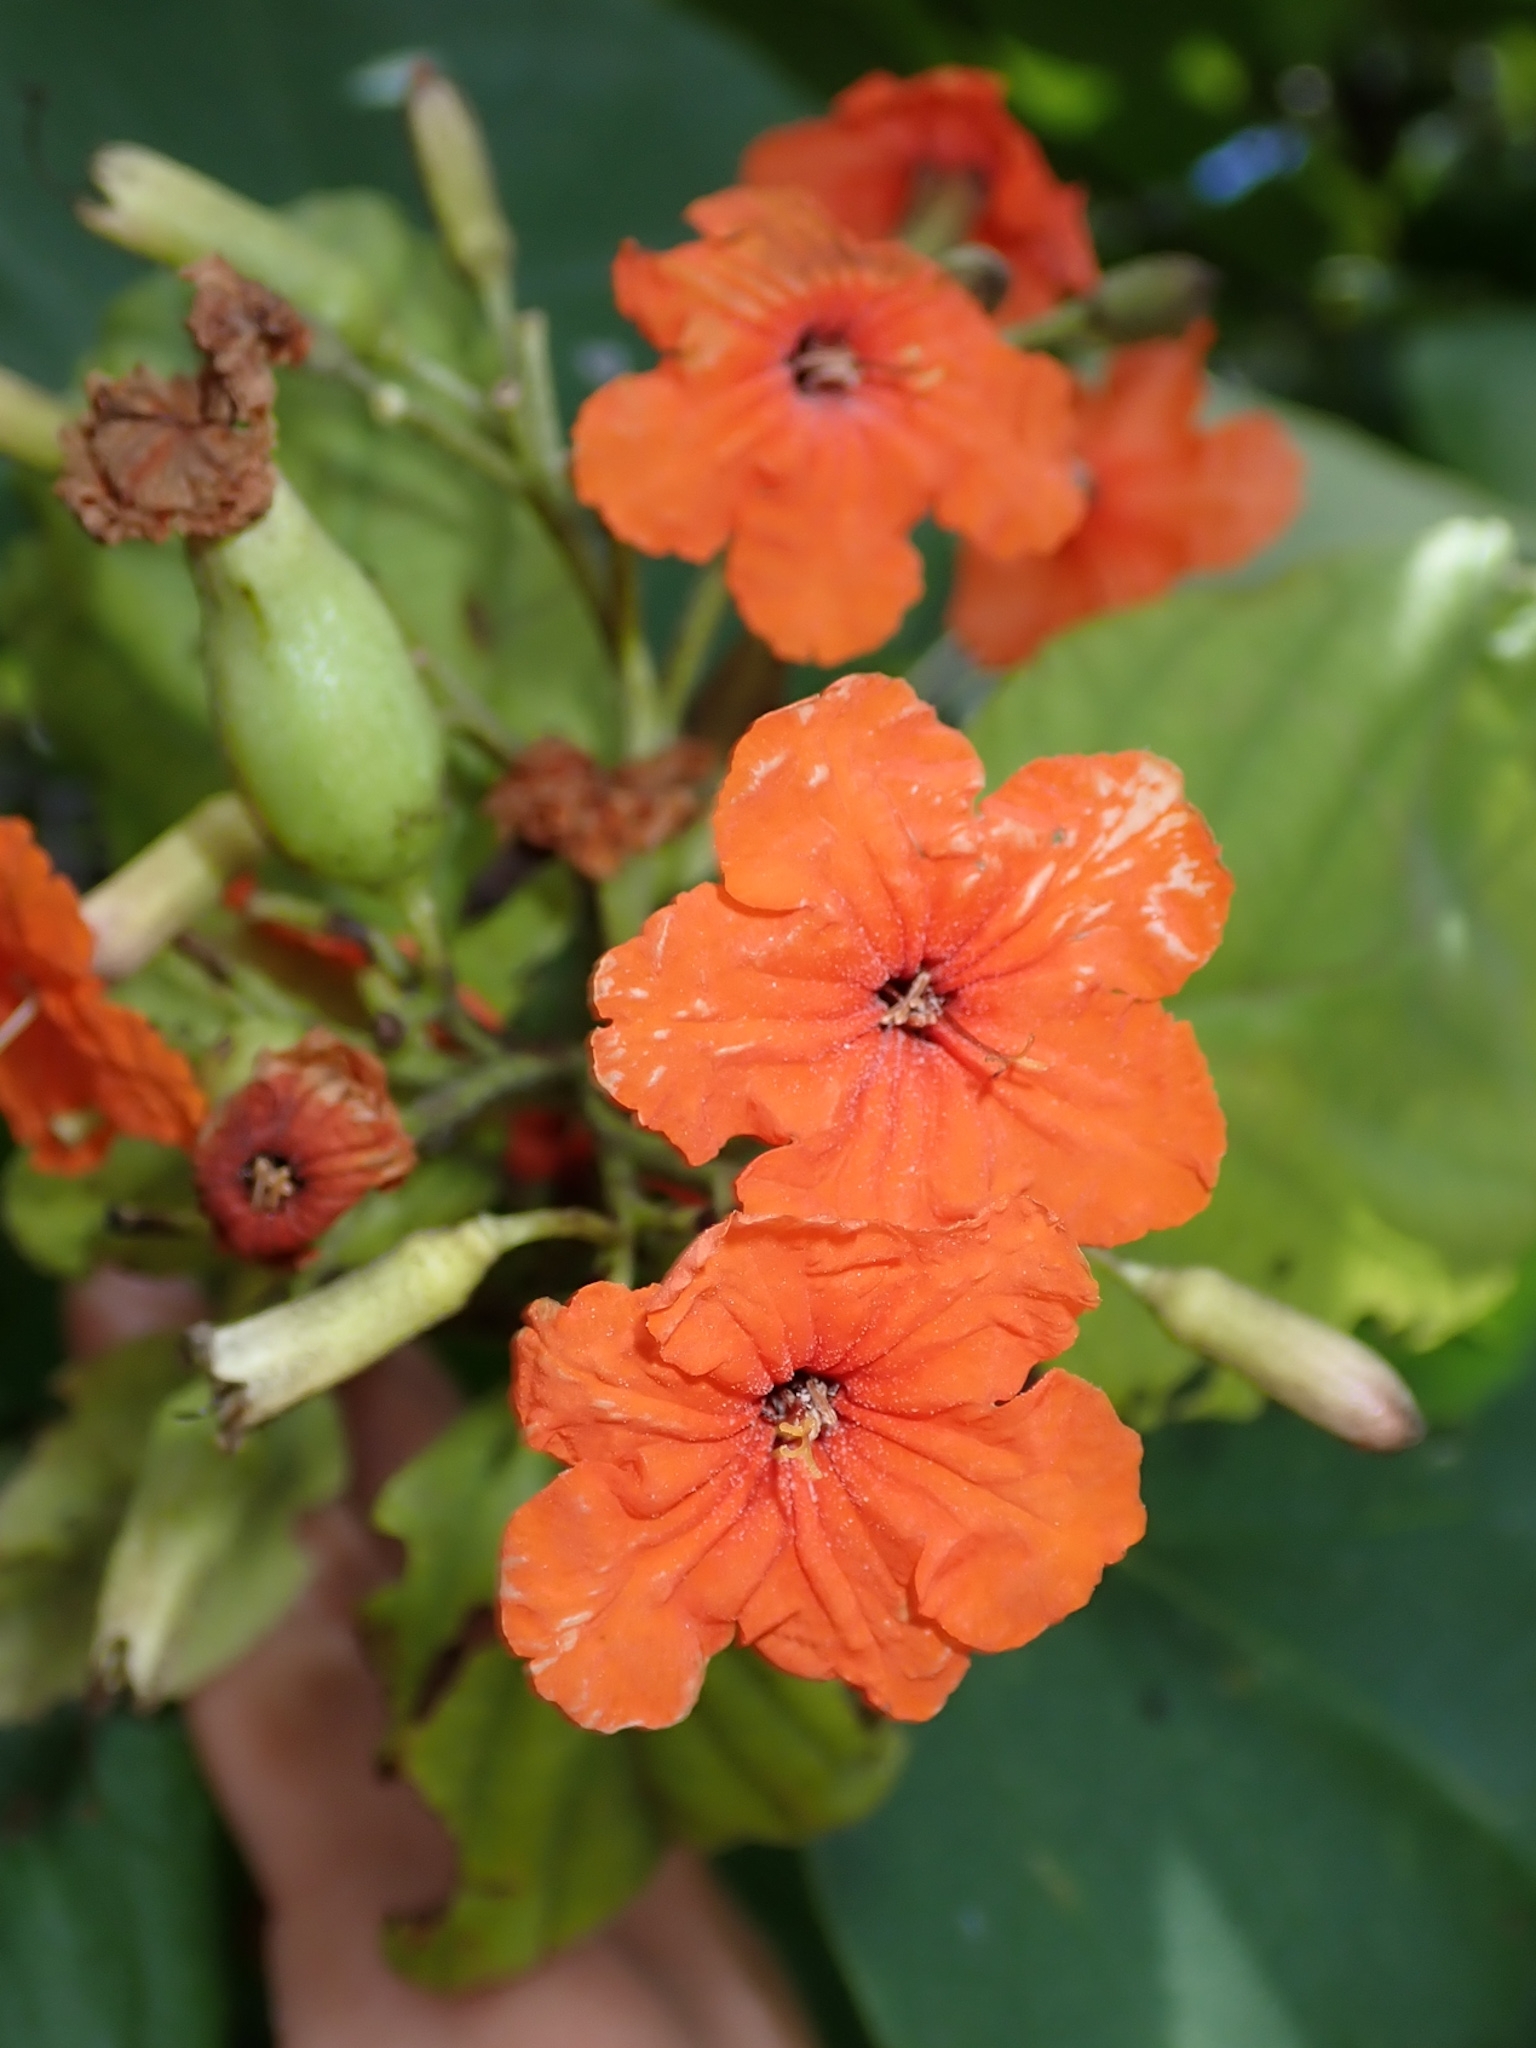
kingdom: Plantae
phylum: Tracheophyta
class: Magnoliopsida
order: Boraginales
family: Cordiaceae
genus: Cordia
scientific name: Cordia sebestena
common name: Largeleaf geigertree
